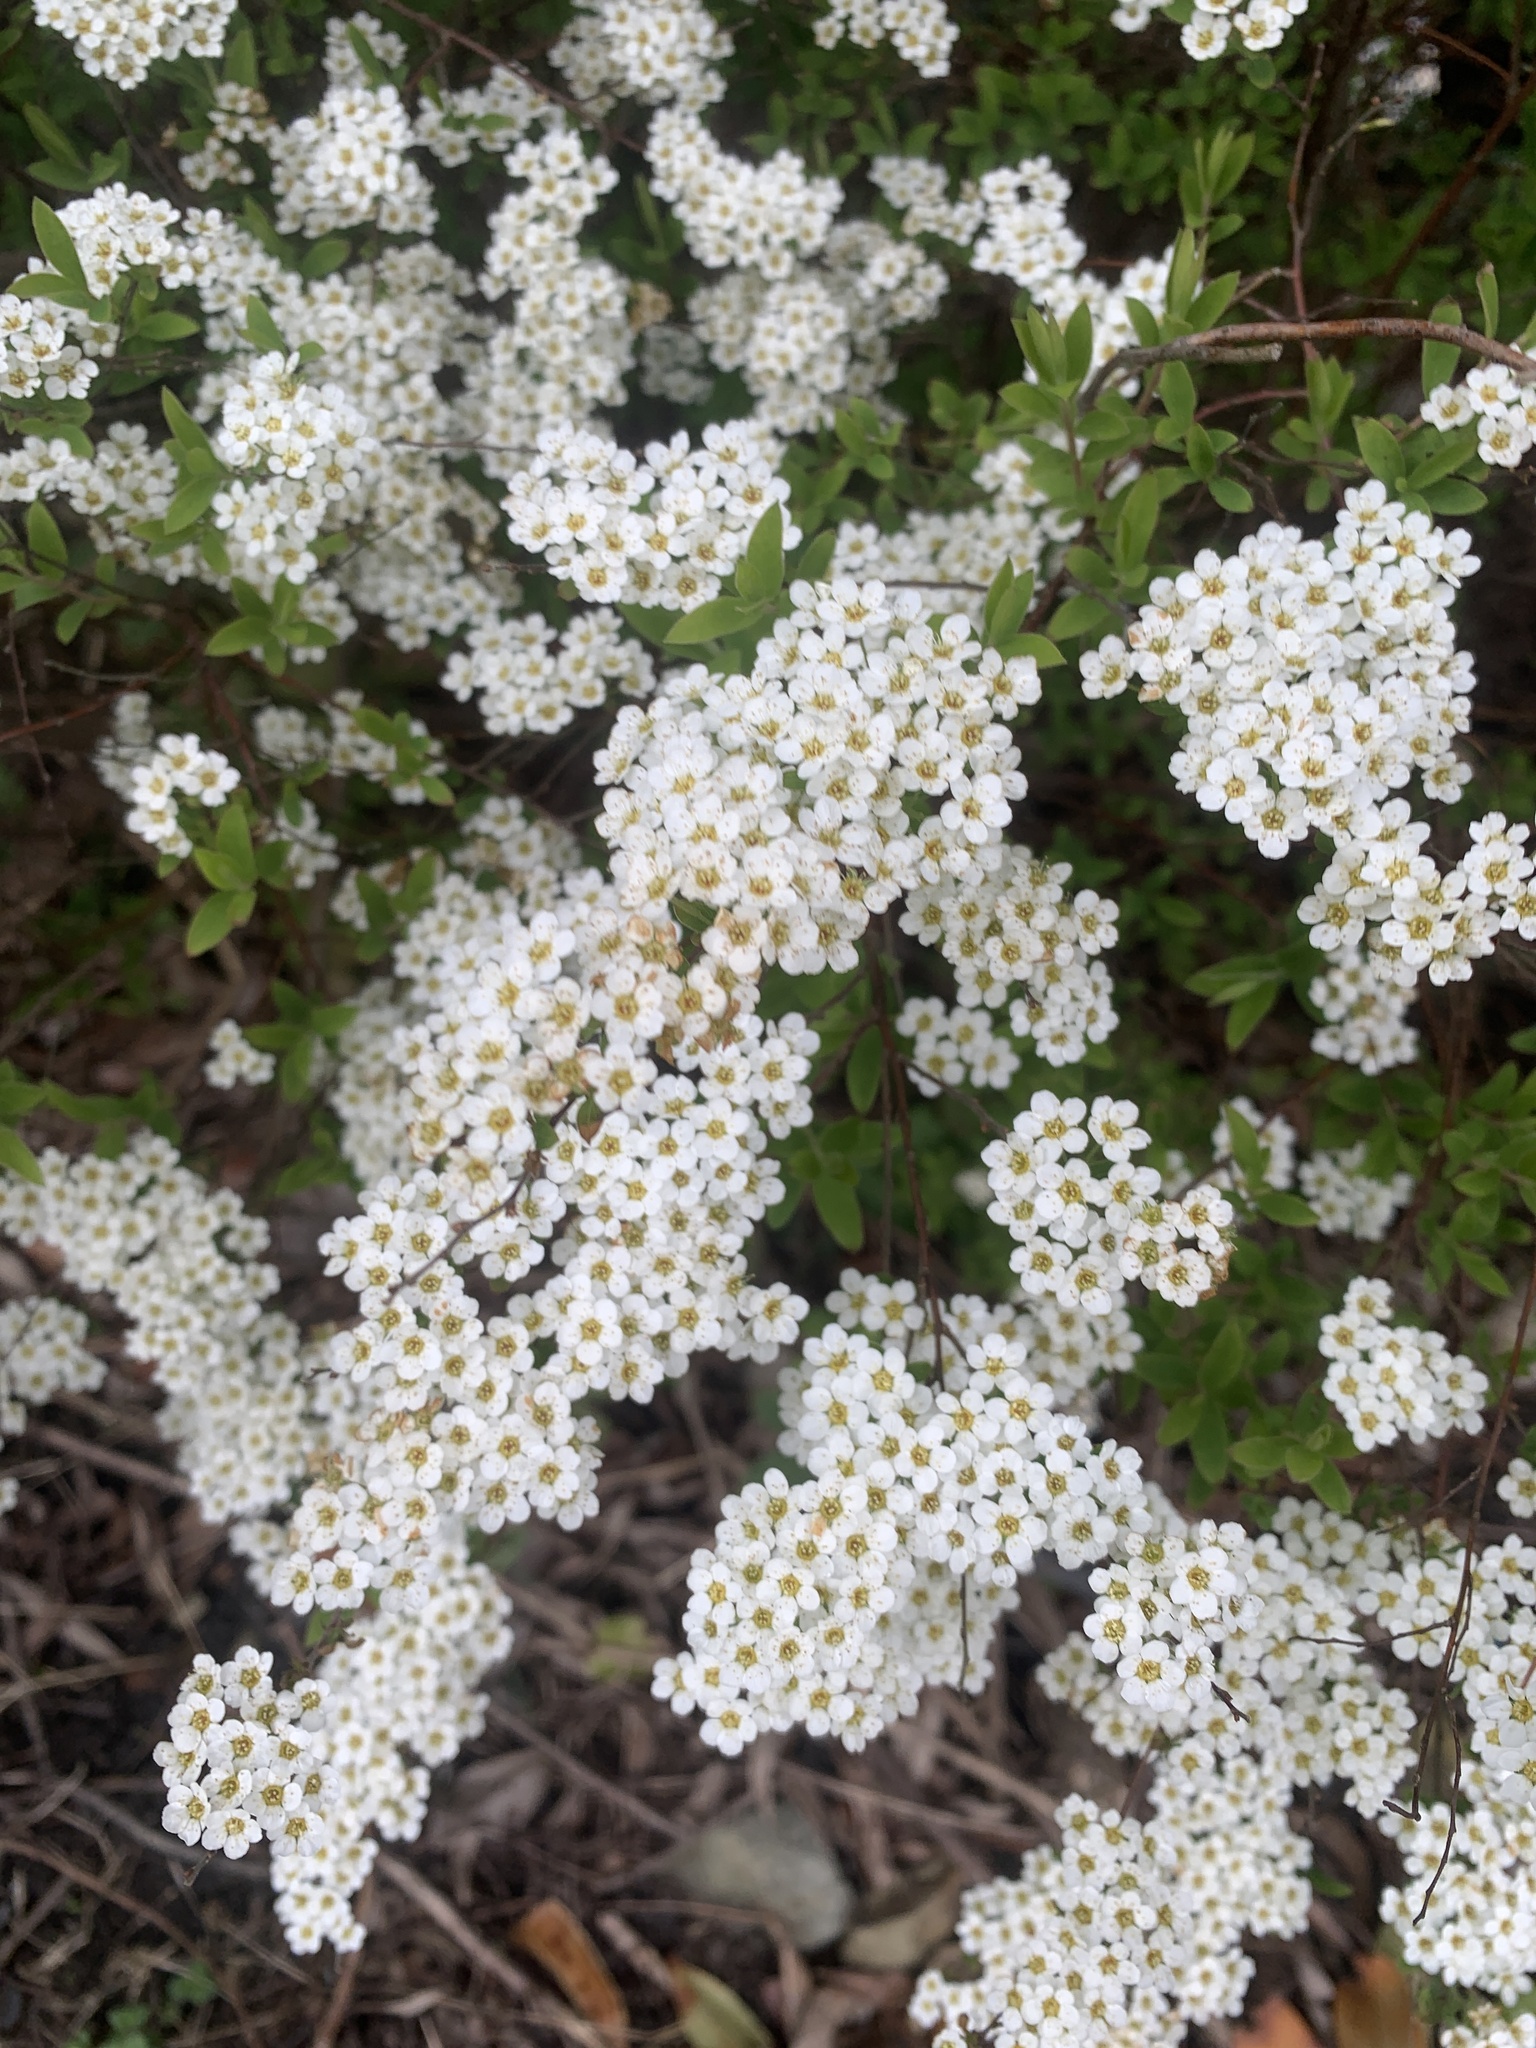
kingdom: Plantae
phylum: Tracheophyta
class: Magnoliopsida
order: Rosales
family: Rosaceae
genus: Spiraea
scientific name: Spiraea cantoniensis
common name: Reeves' meadowsweet
